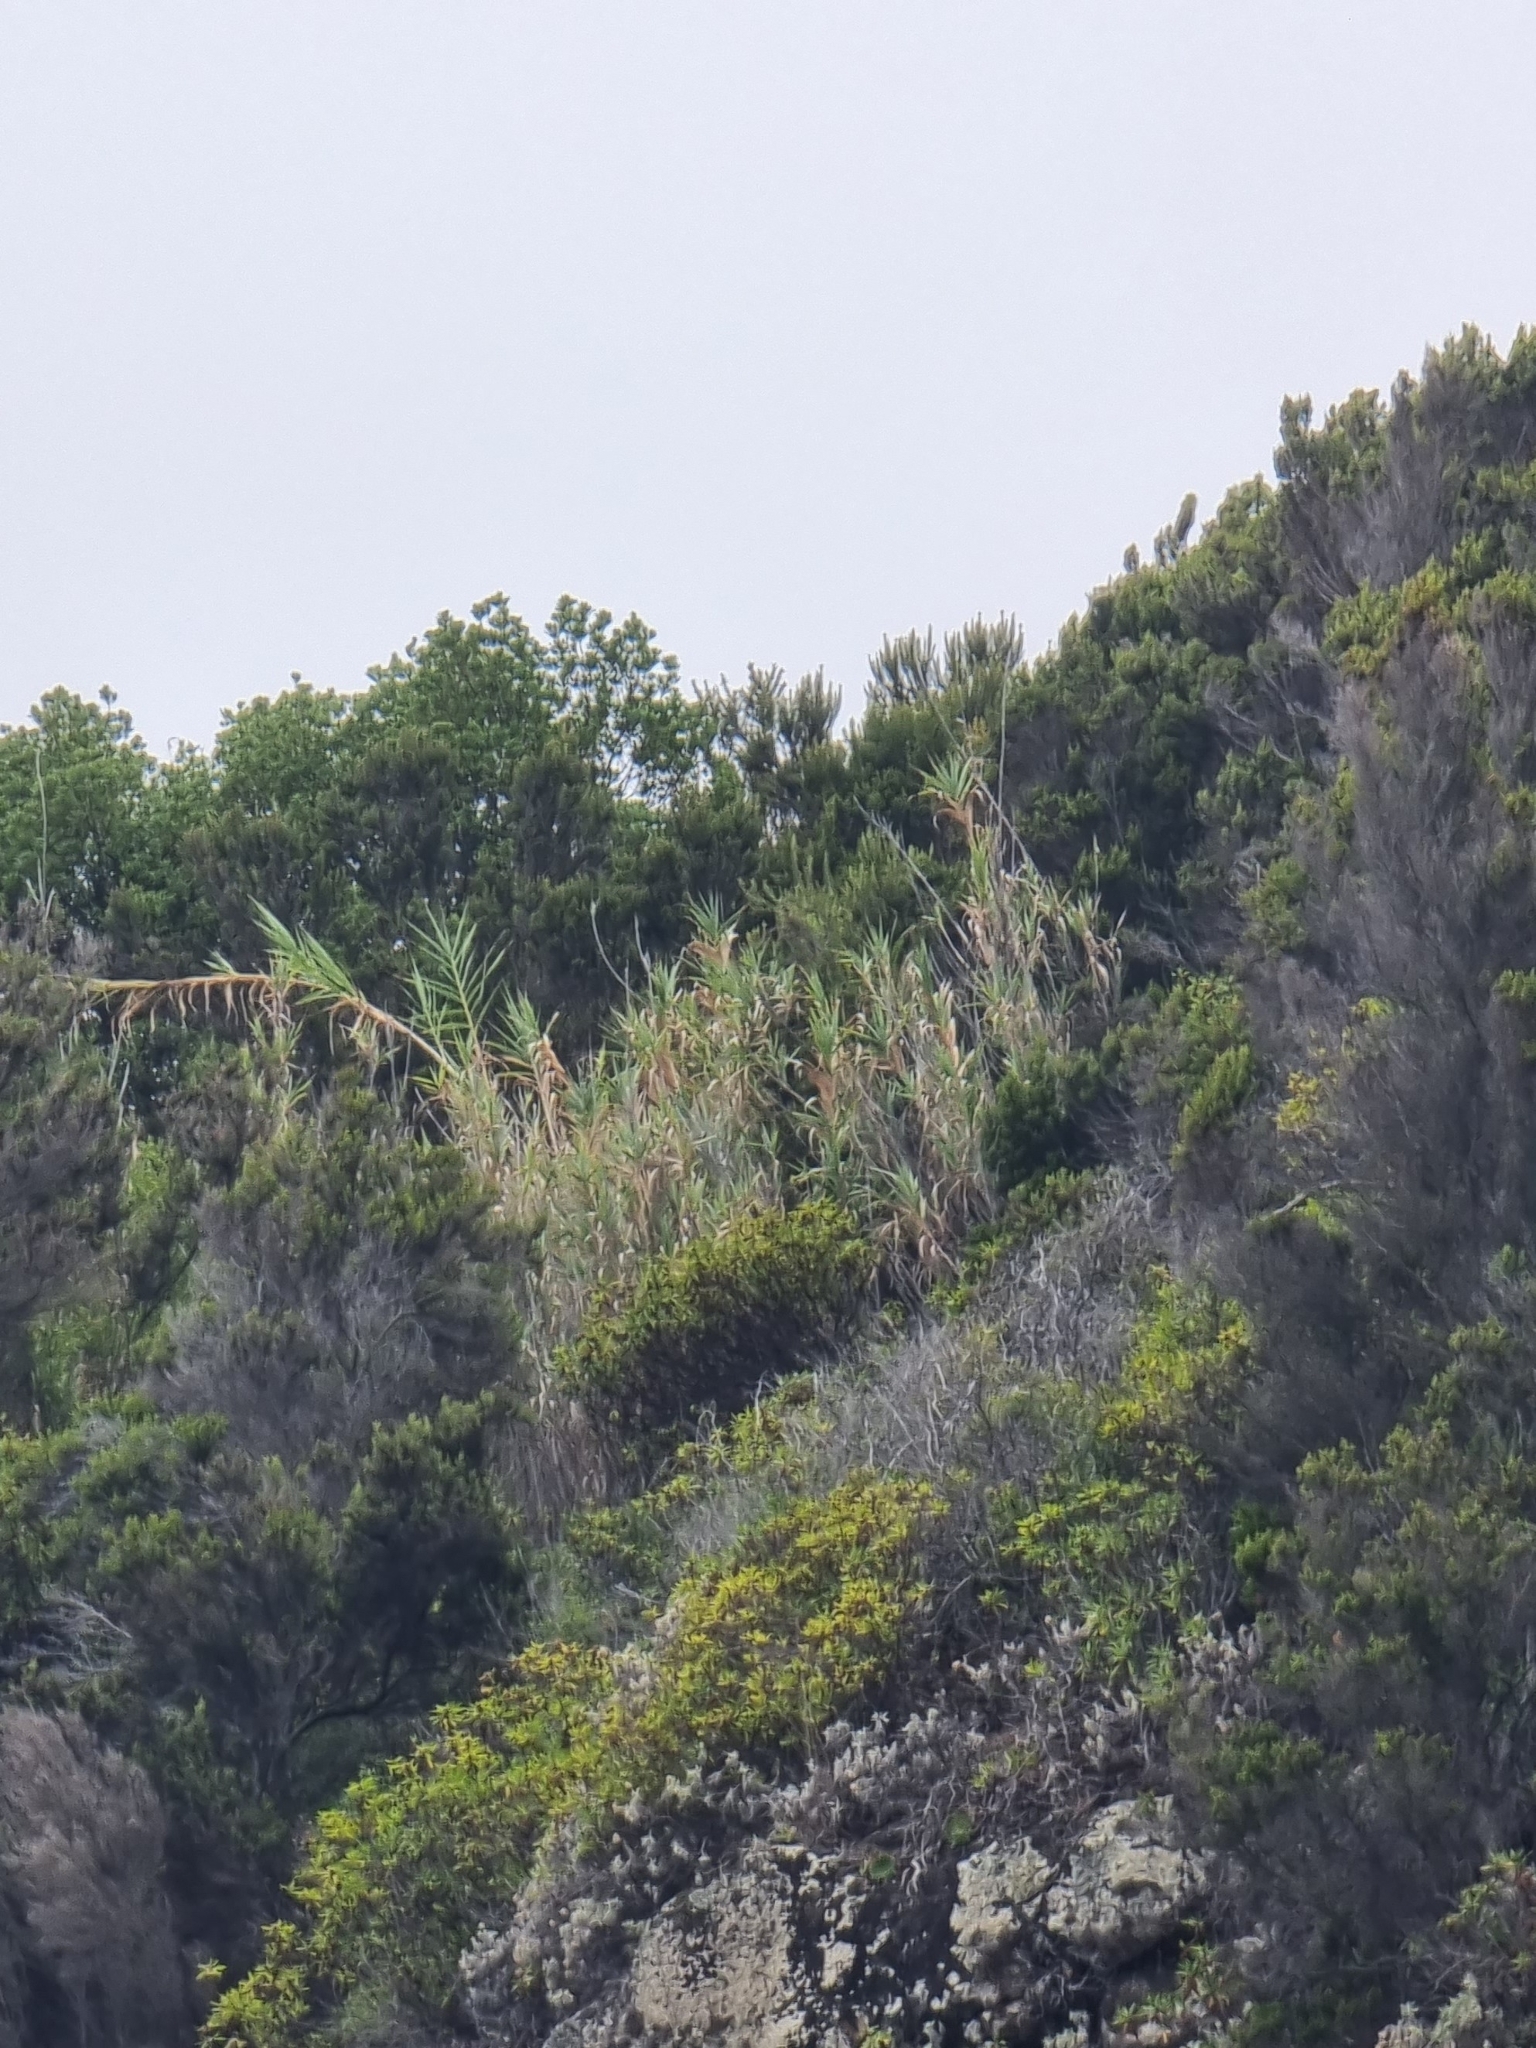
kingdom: Plantae
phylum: Tracheophyta
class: Liliopsida
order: Poales
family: Poaceae
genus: Arundo
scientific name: Arundo donax
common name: Giant reed
